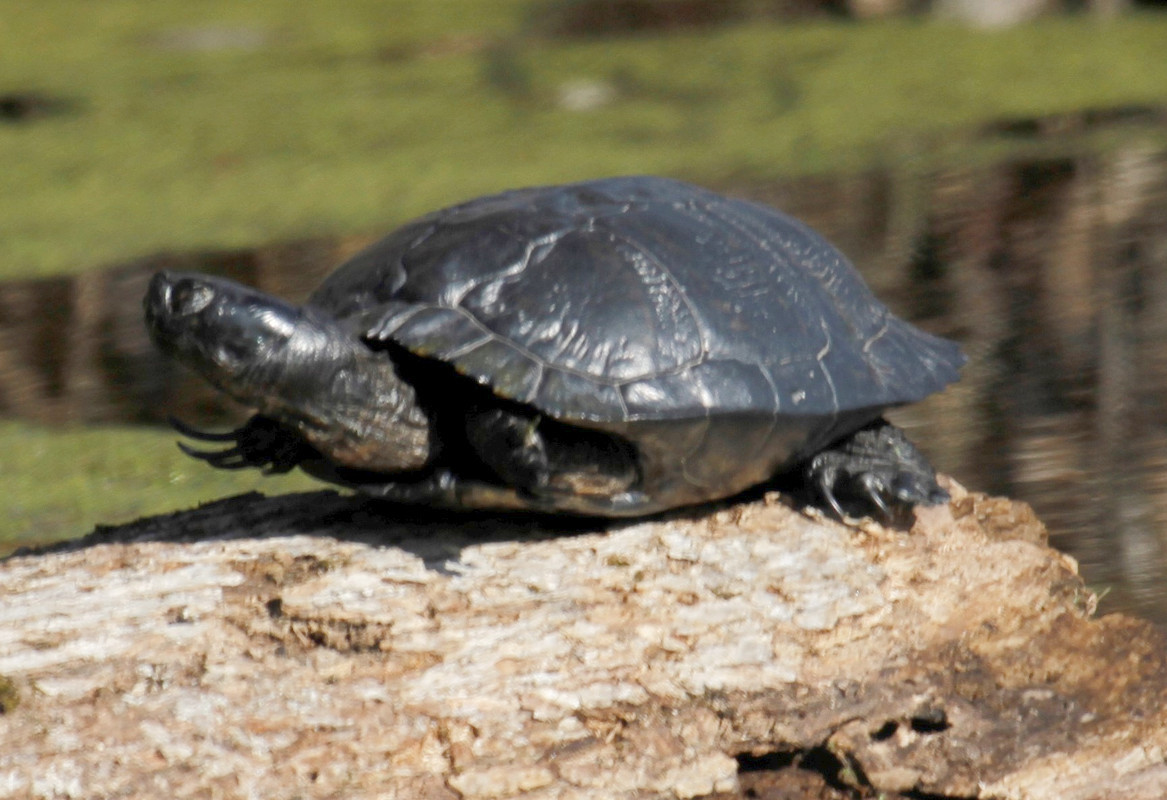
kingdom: Animalia
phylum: Chordata
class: Testudines
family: Emydidae
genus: Trachemys
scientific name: Trachemys scripta
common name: Slider
